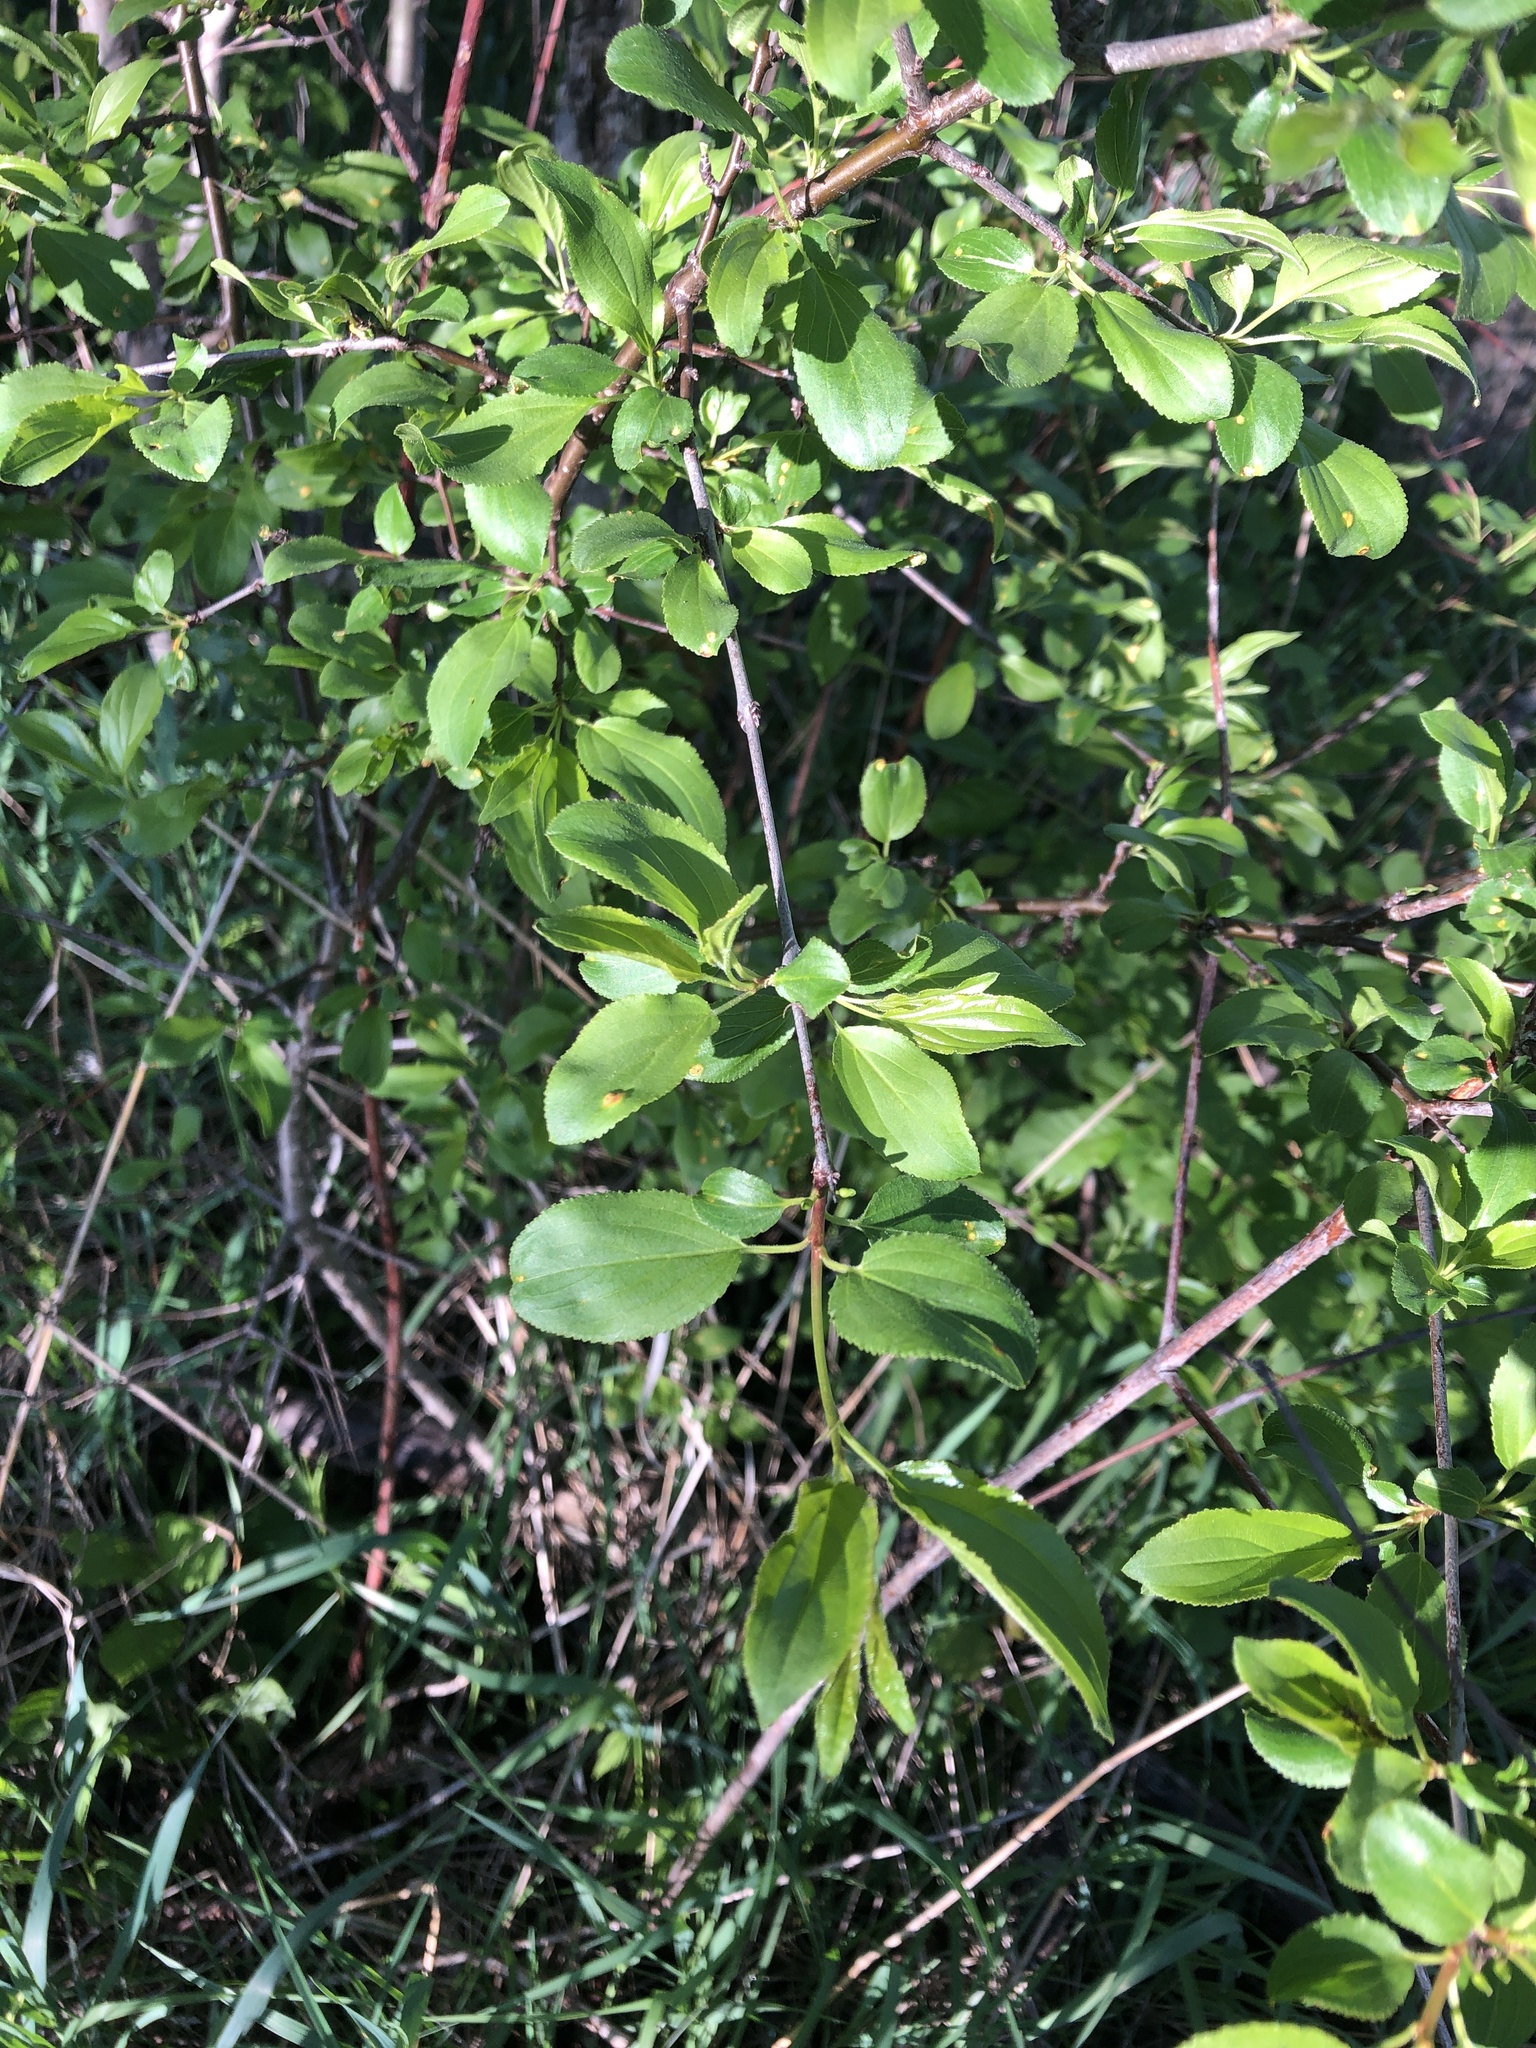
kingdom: Plantae
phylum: Tracheophyta
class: Magnoliopsida
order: Rosales
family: Rhamnaceae
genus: Rhamnus
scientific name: Rhamnus cathartica
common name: Common buckthorn
